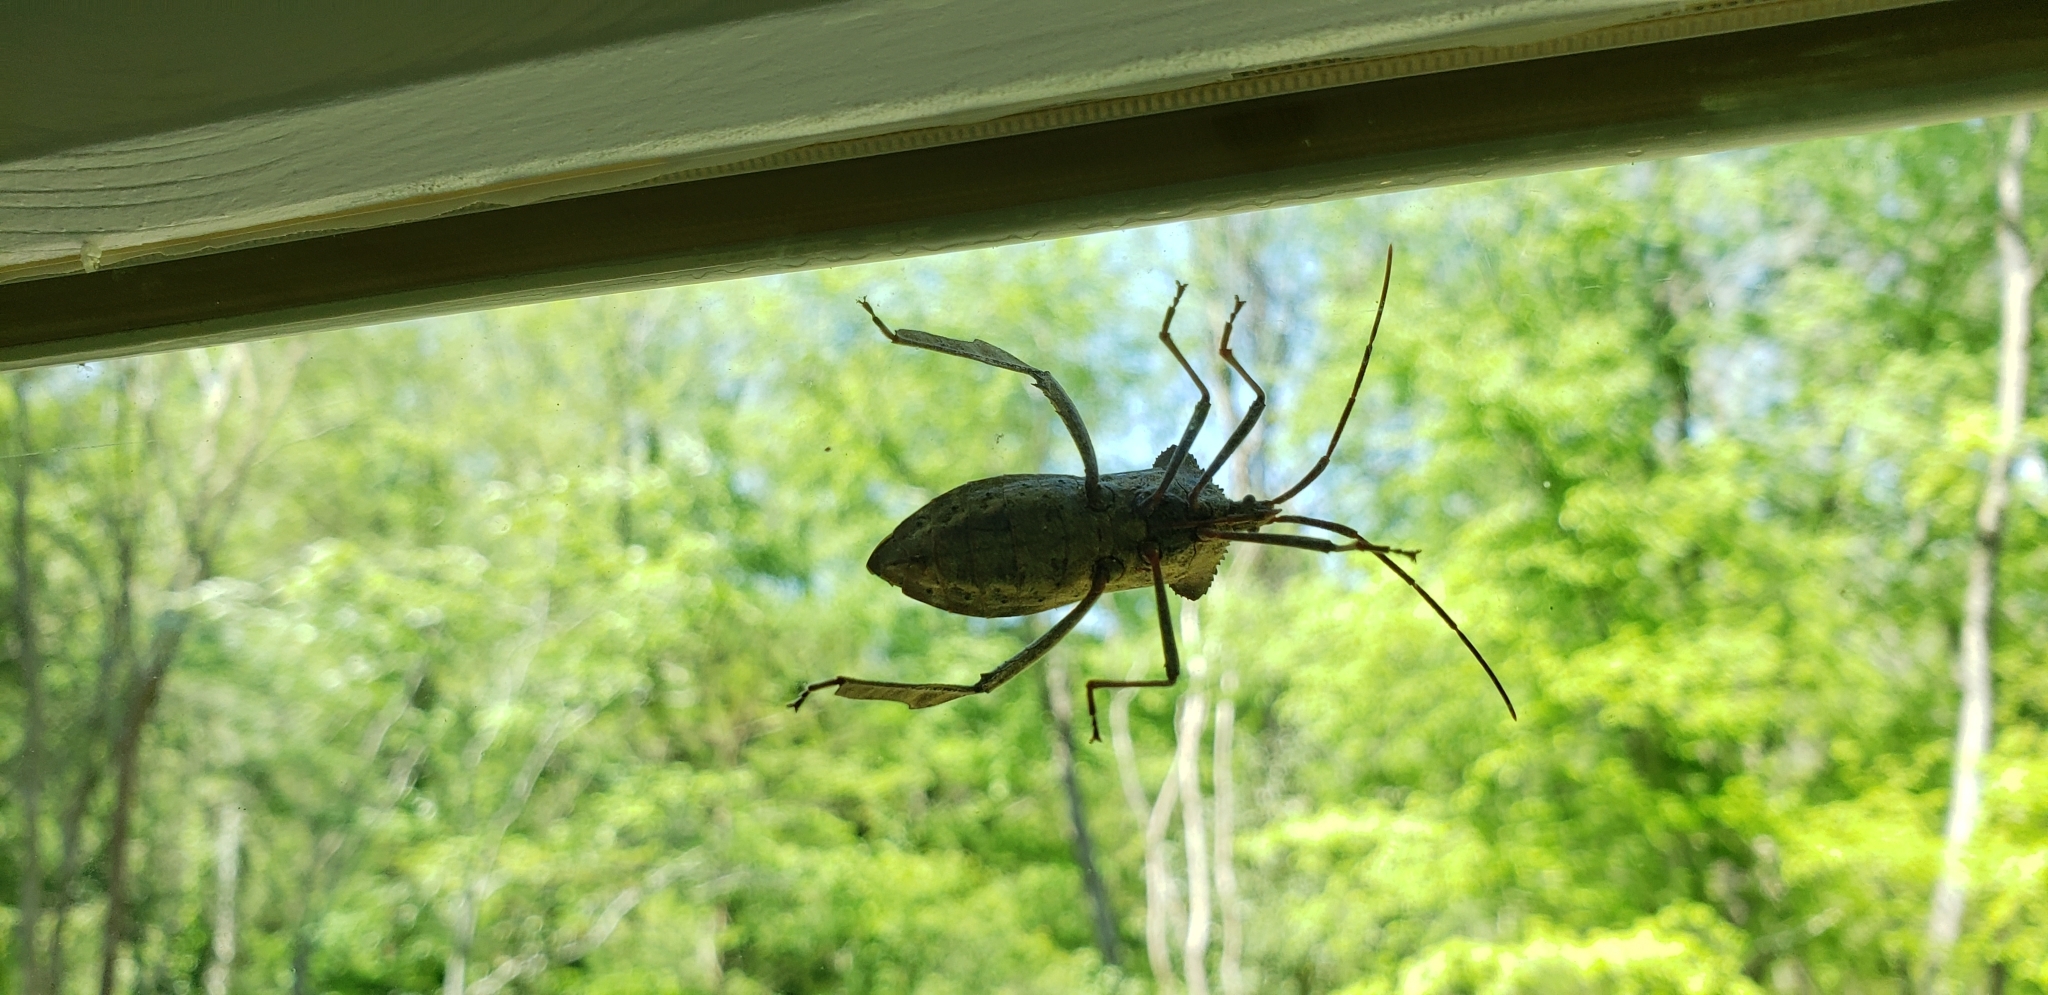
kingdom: Animalia
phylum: Arthropoda
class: Insecta
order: Hemiptera
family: Coreidae
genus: Acanthocephala
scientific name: Acanthocephala declivis
